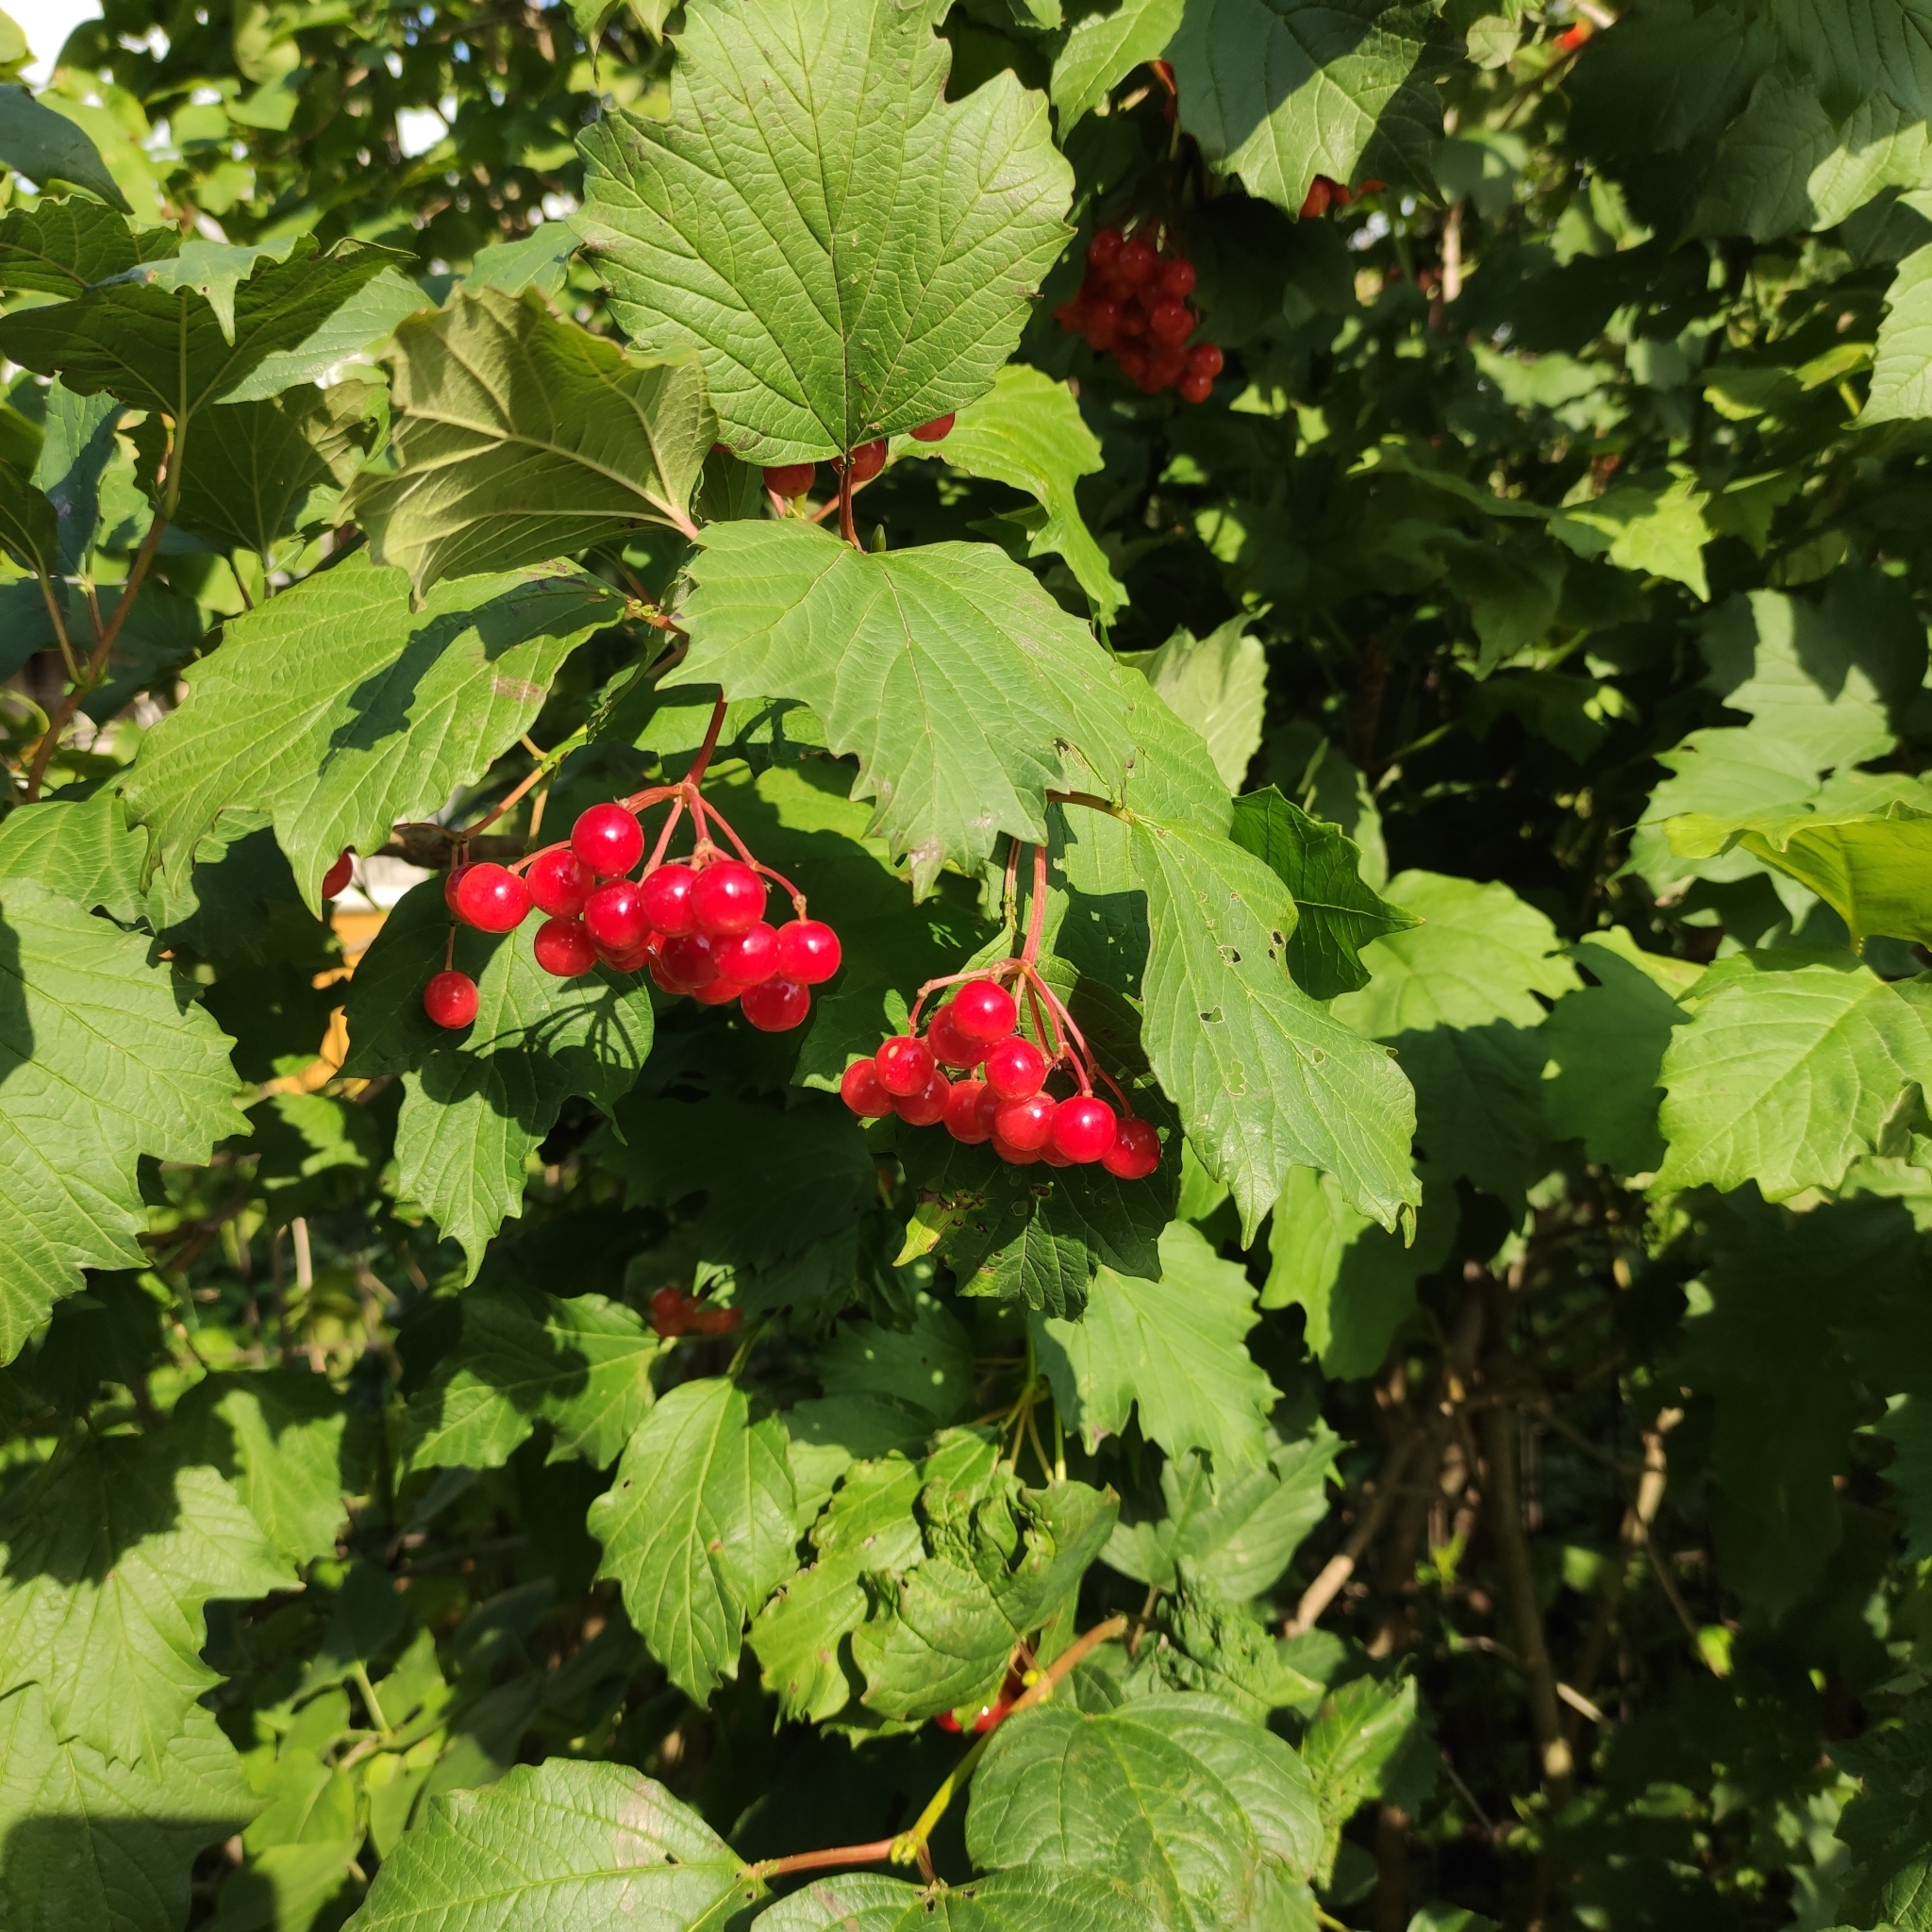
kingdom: Plantae
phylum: Tracheophyta
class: Magnoliopsida
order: Dipsacales
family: Viburnaceae
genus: Viburnum
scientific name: Viburnum opulus
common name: Guelder-rose
